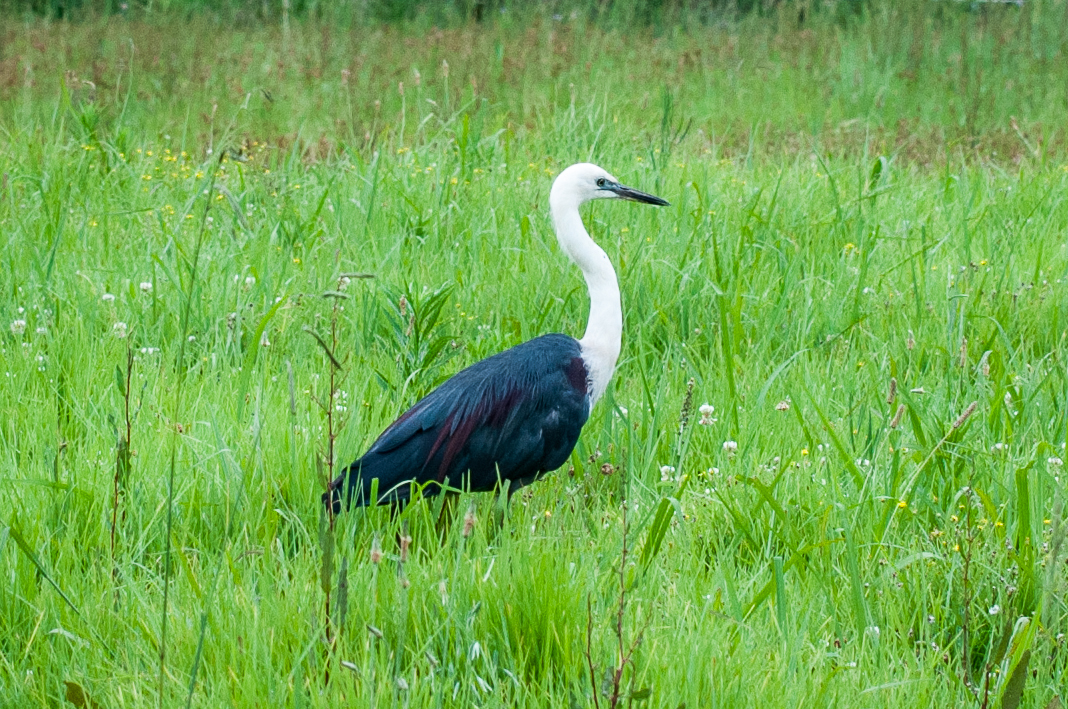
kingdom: Animalia
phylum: Chordata
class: Aves
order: Pelecaniformes
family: Ardeidae
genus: Ardea
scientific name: Ardea pacifica
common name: White-necked heron
